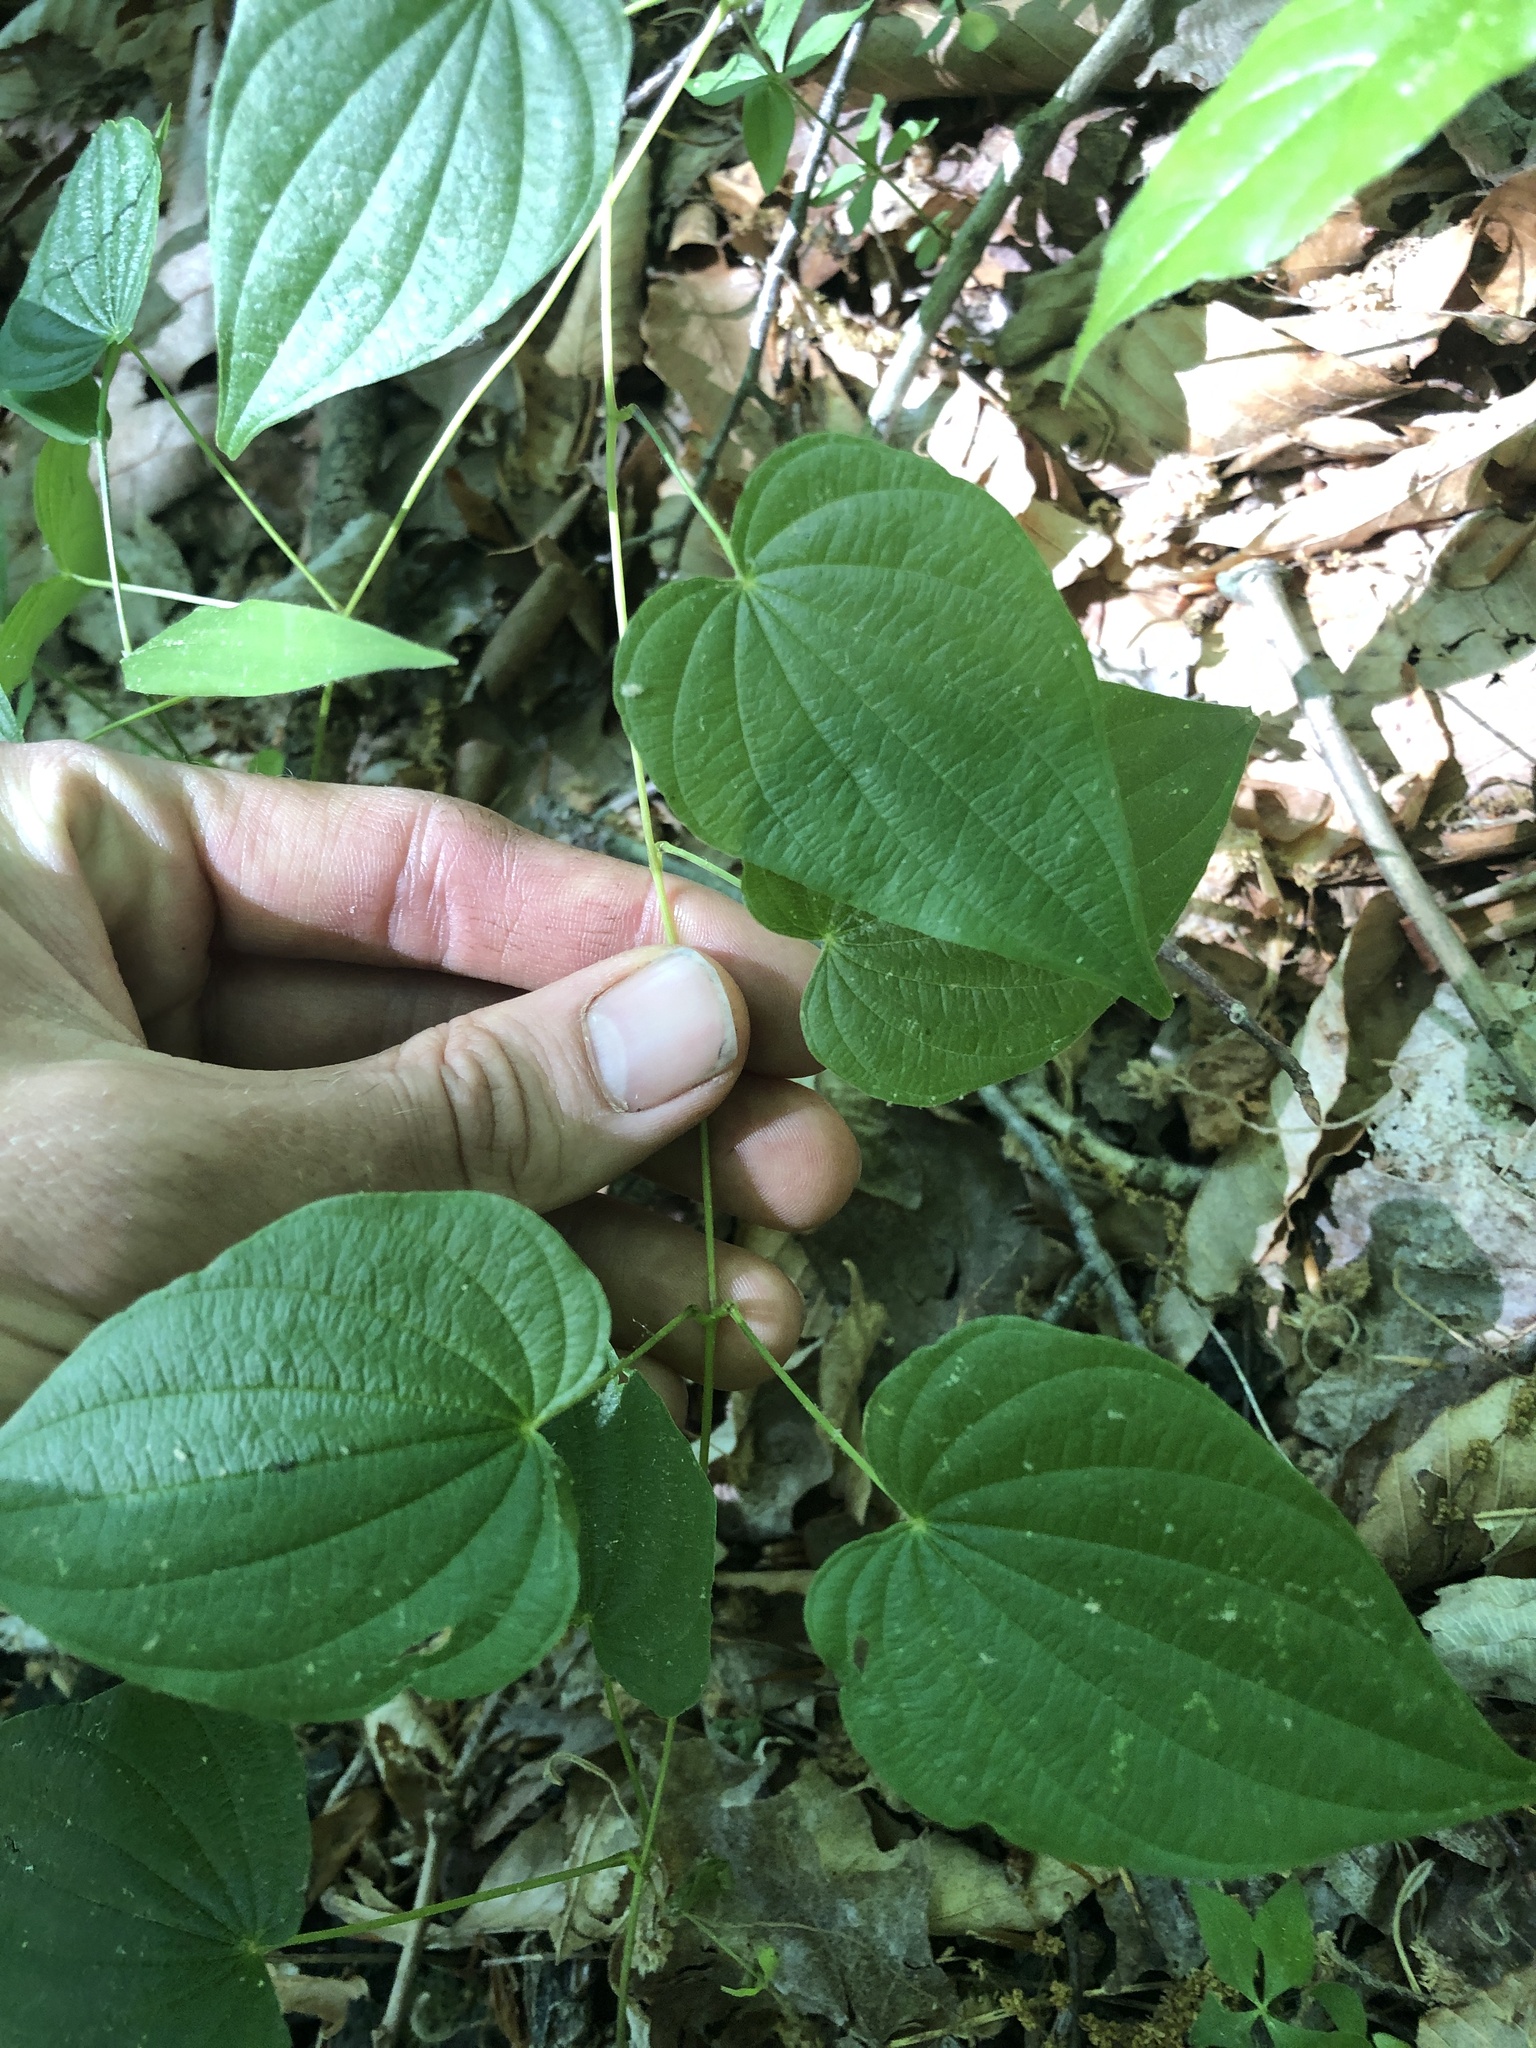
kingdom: Plantae
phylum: Tracheophyta
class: Liliopsida
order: Dioscoreales
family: Dioscoreaceae
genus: Dioscorea
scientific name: Dioscorea villosa
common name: Wild yam
